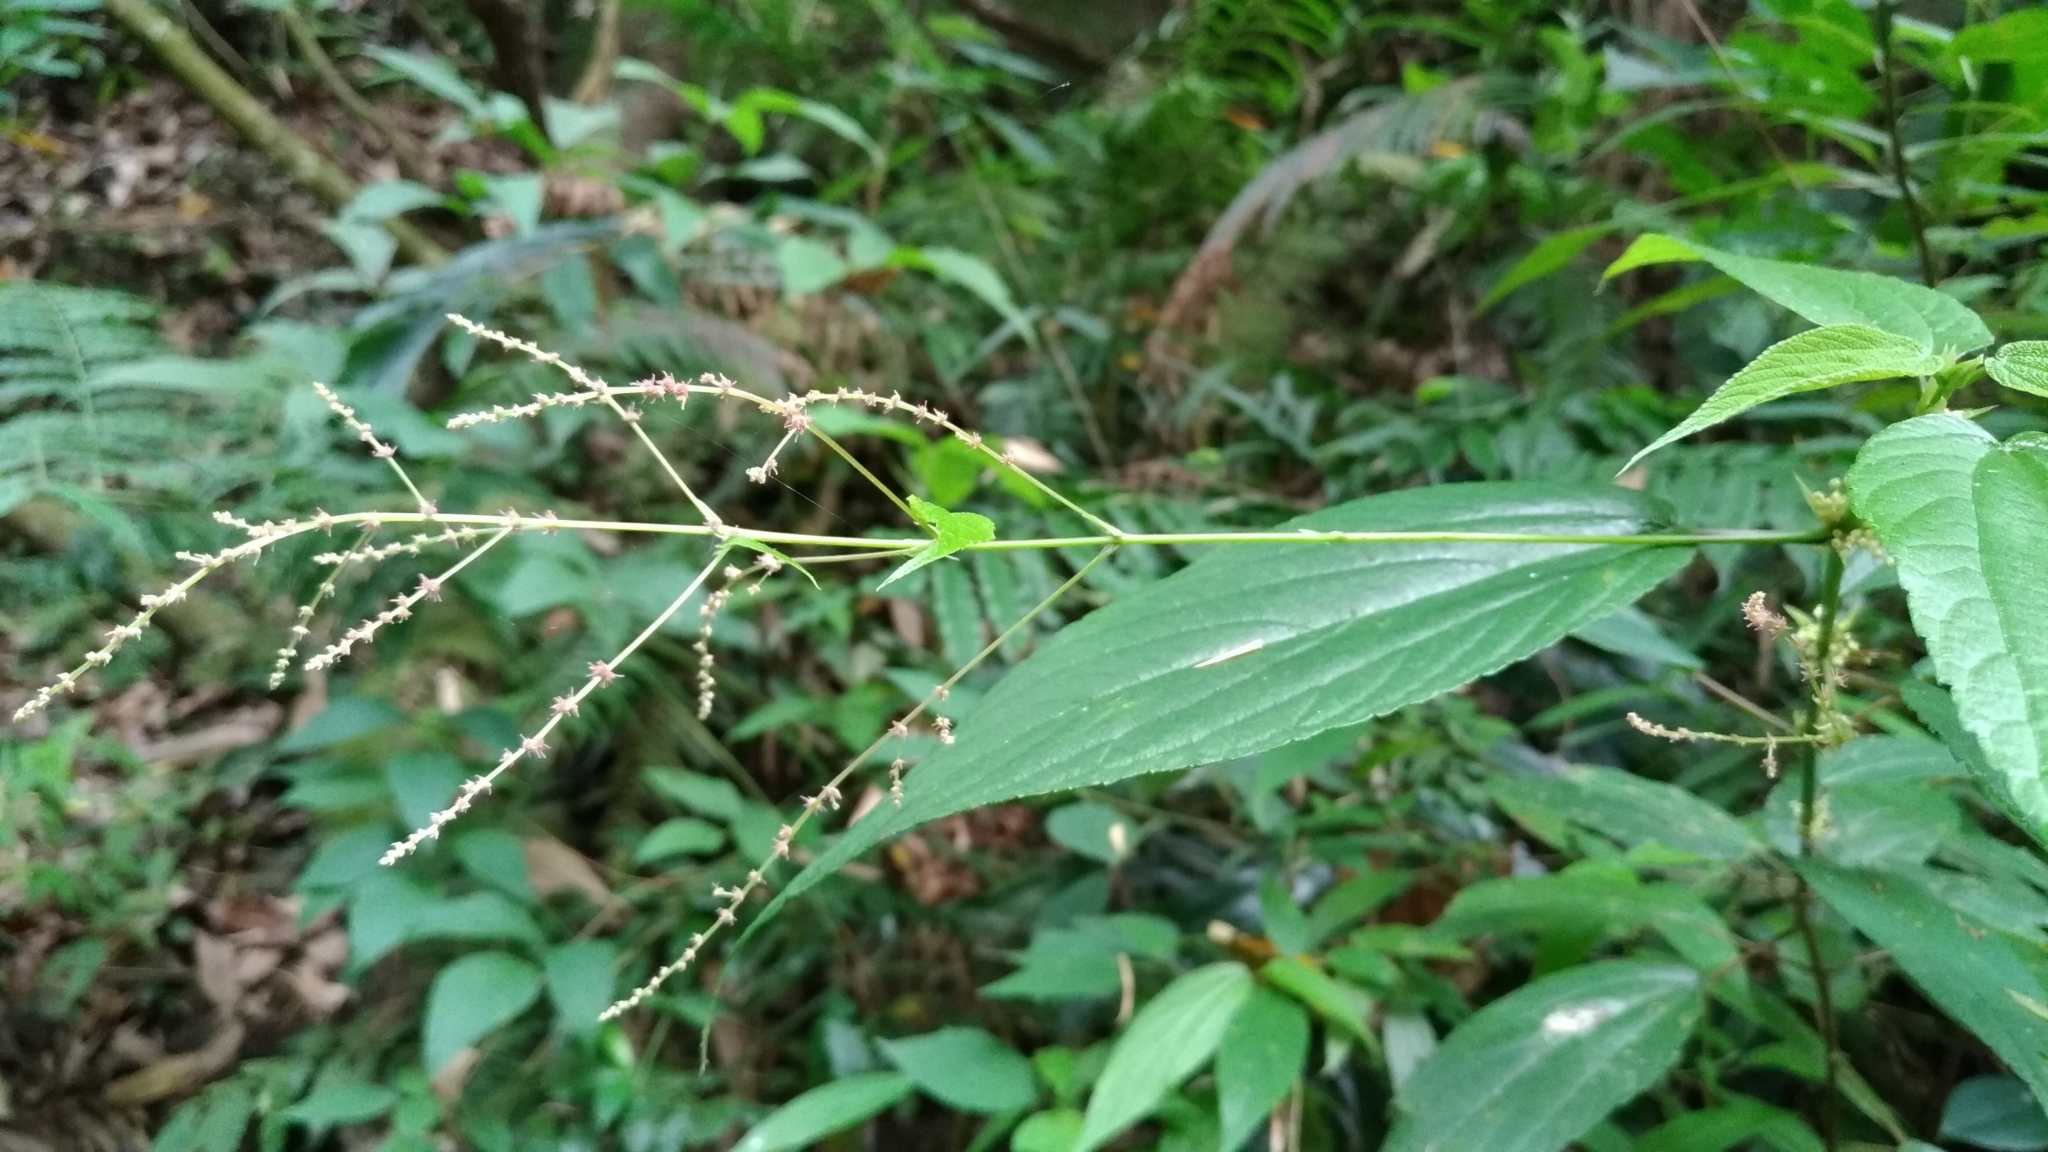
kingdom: Plantae
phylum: Tracheophyta
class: Magnoliopsida
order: Rosales
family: Urticaceae
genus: Boehmeria
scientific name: Boehmeria zollingeriana
